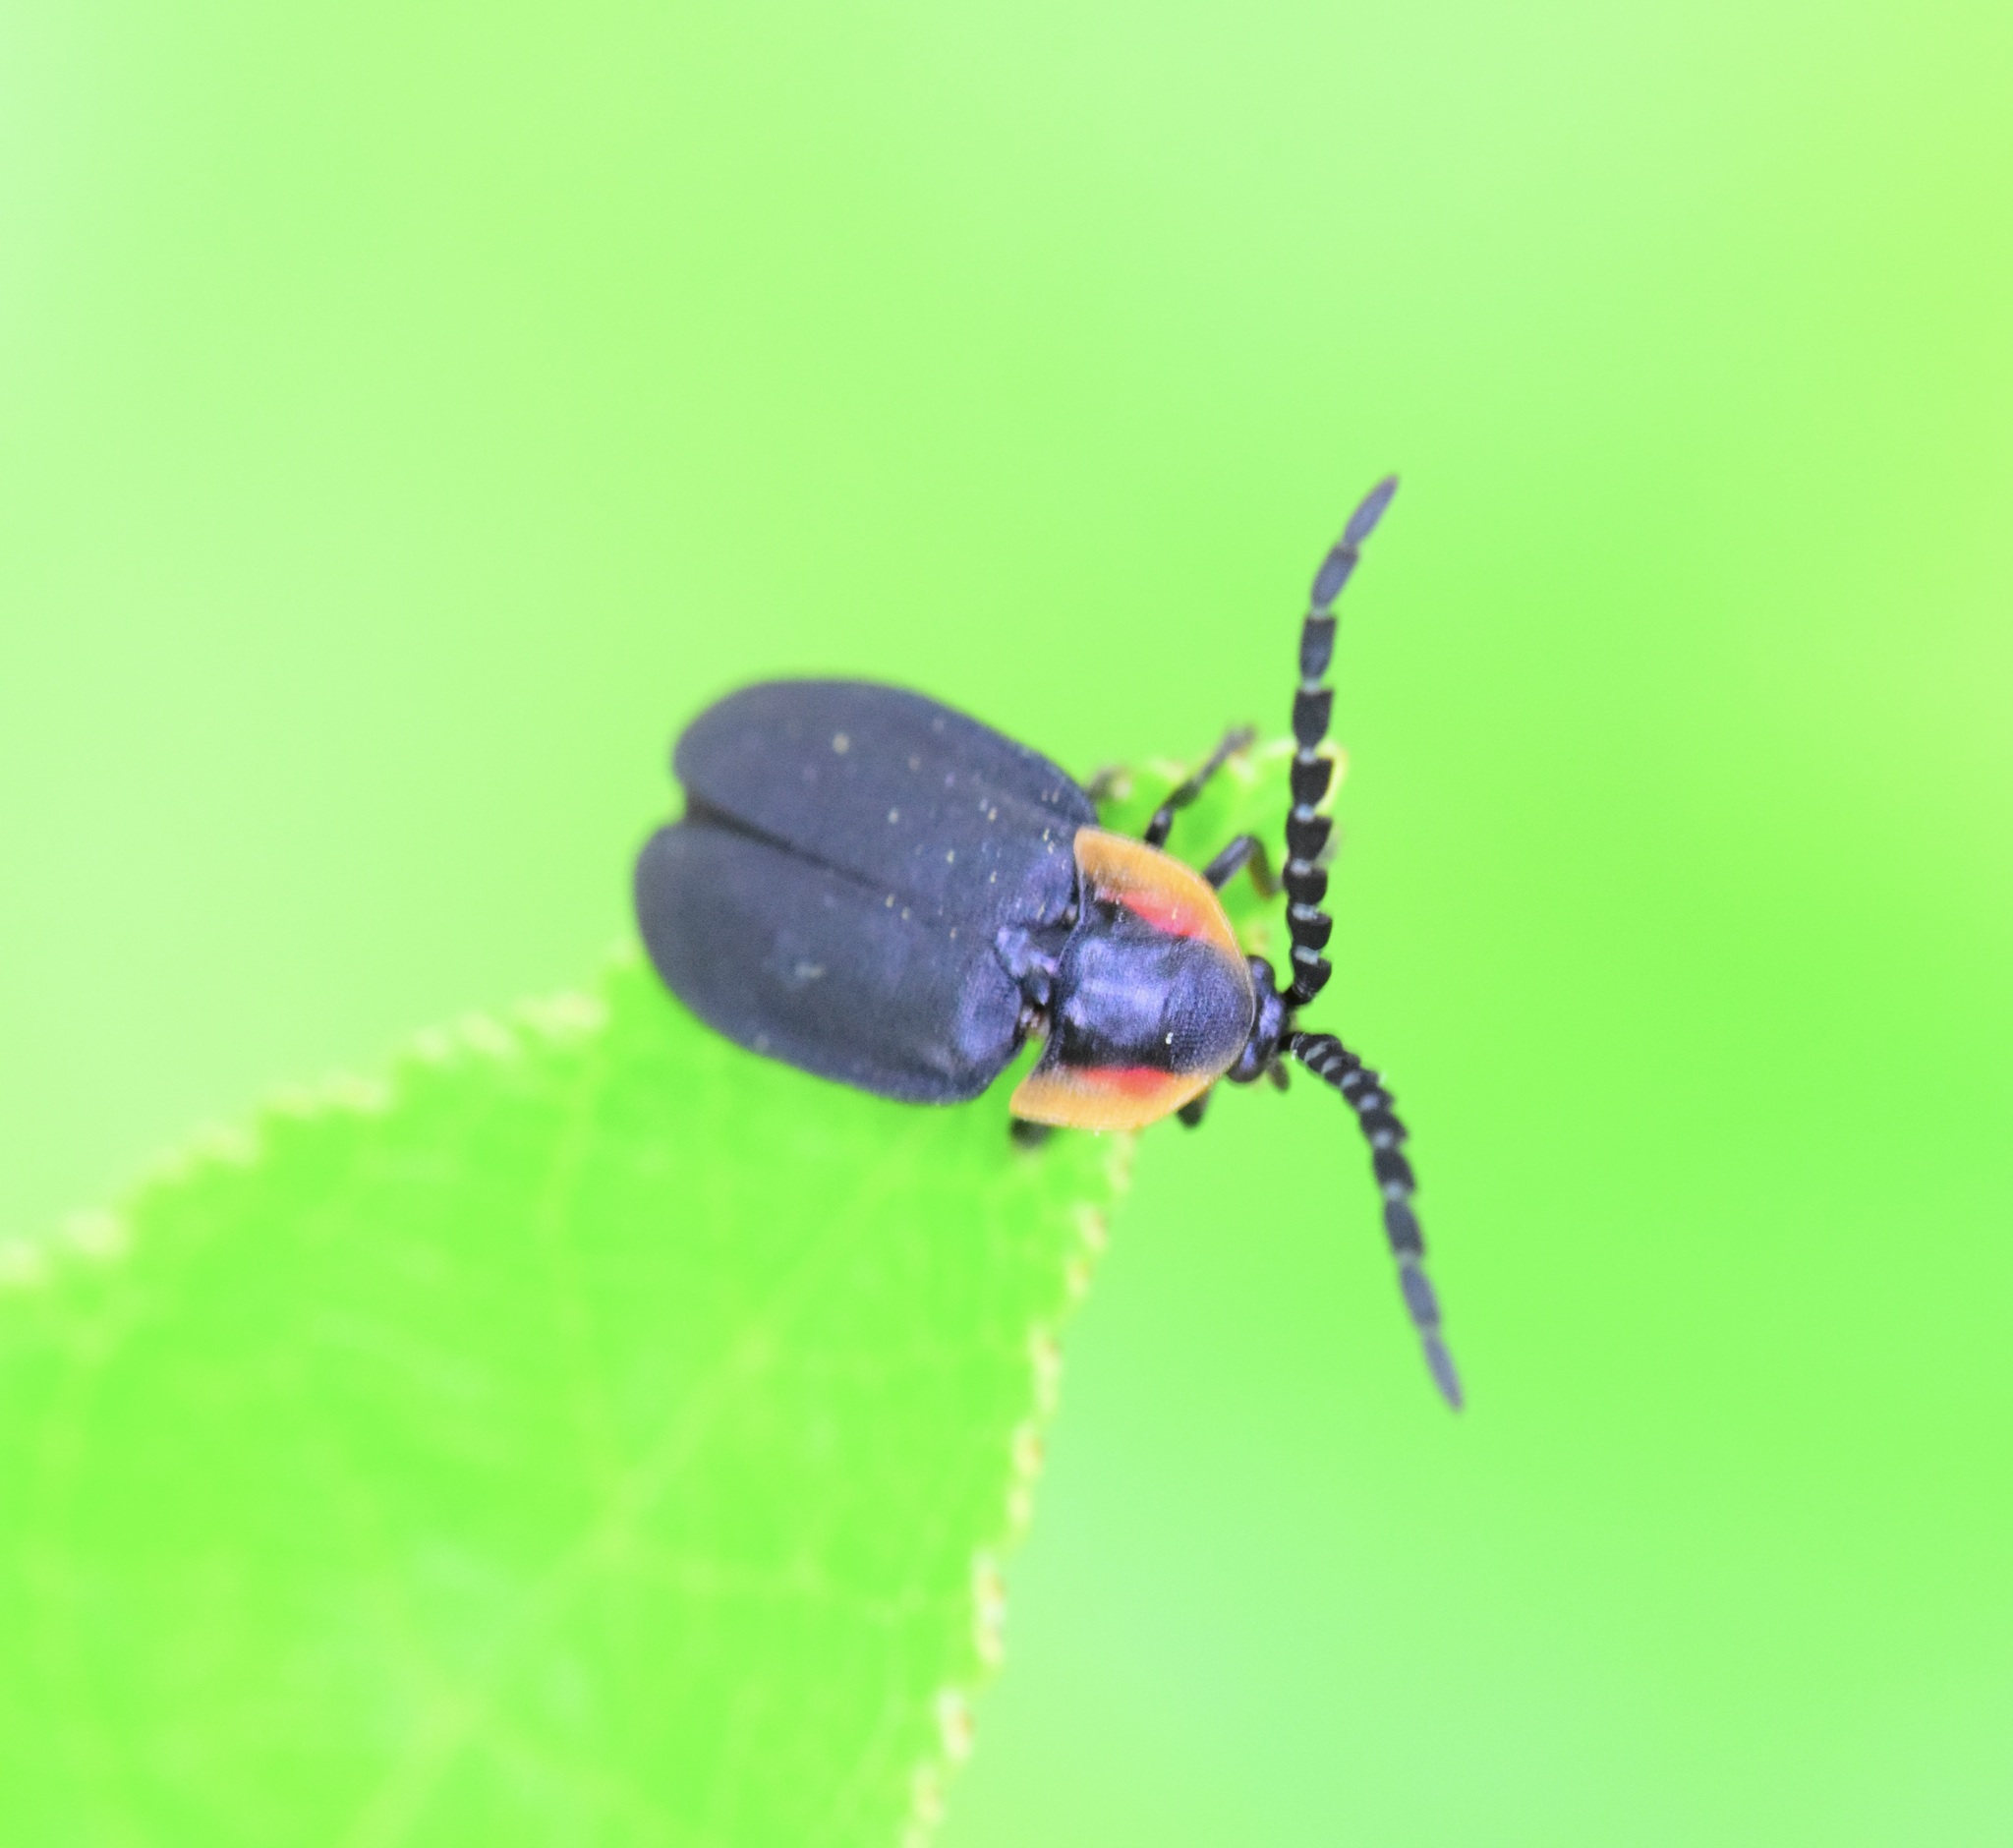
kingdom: Animalia
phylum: Arthropoda
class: Insecta
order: Coleoptera
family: Lampyridae
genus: Lucidota
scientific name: Lucidota atra
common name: Black firefly
